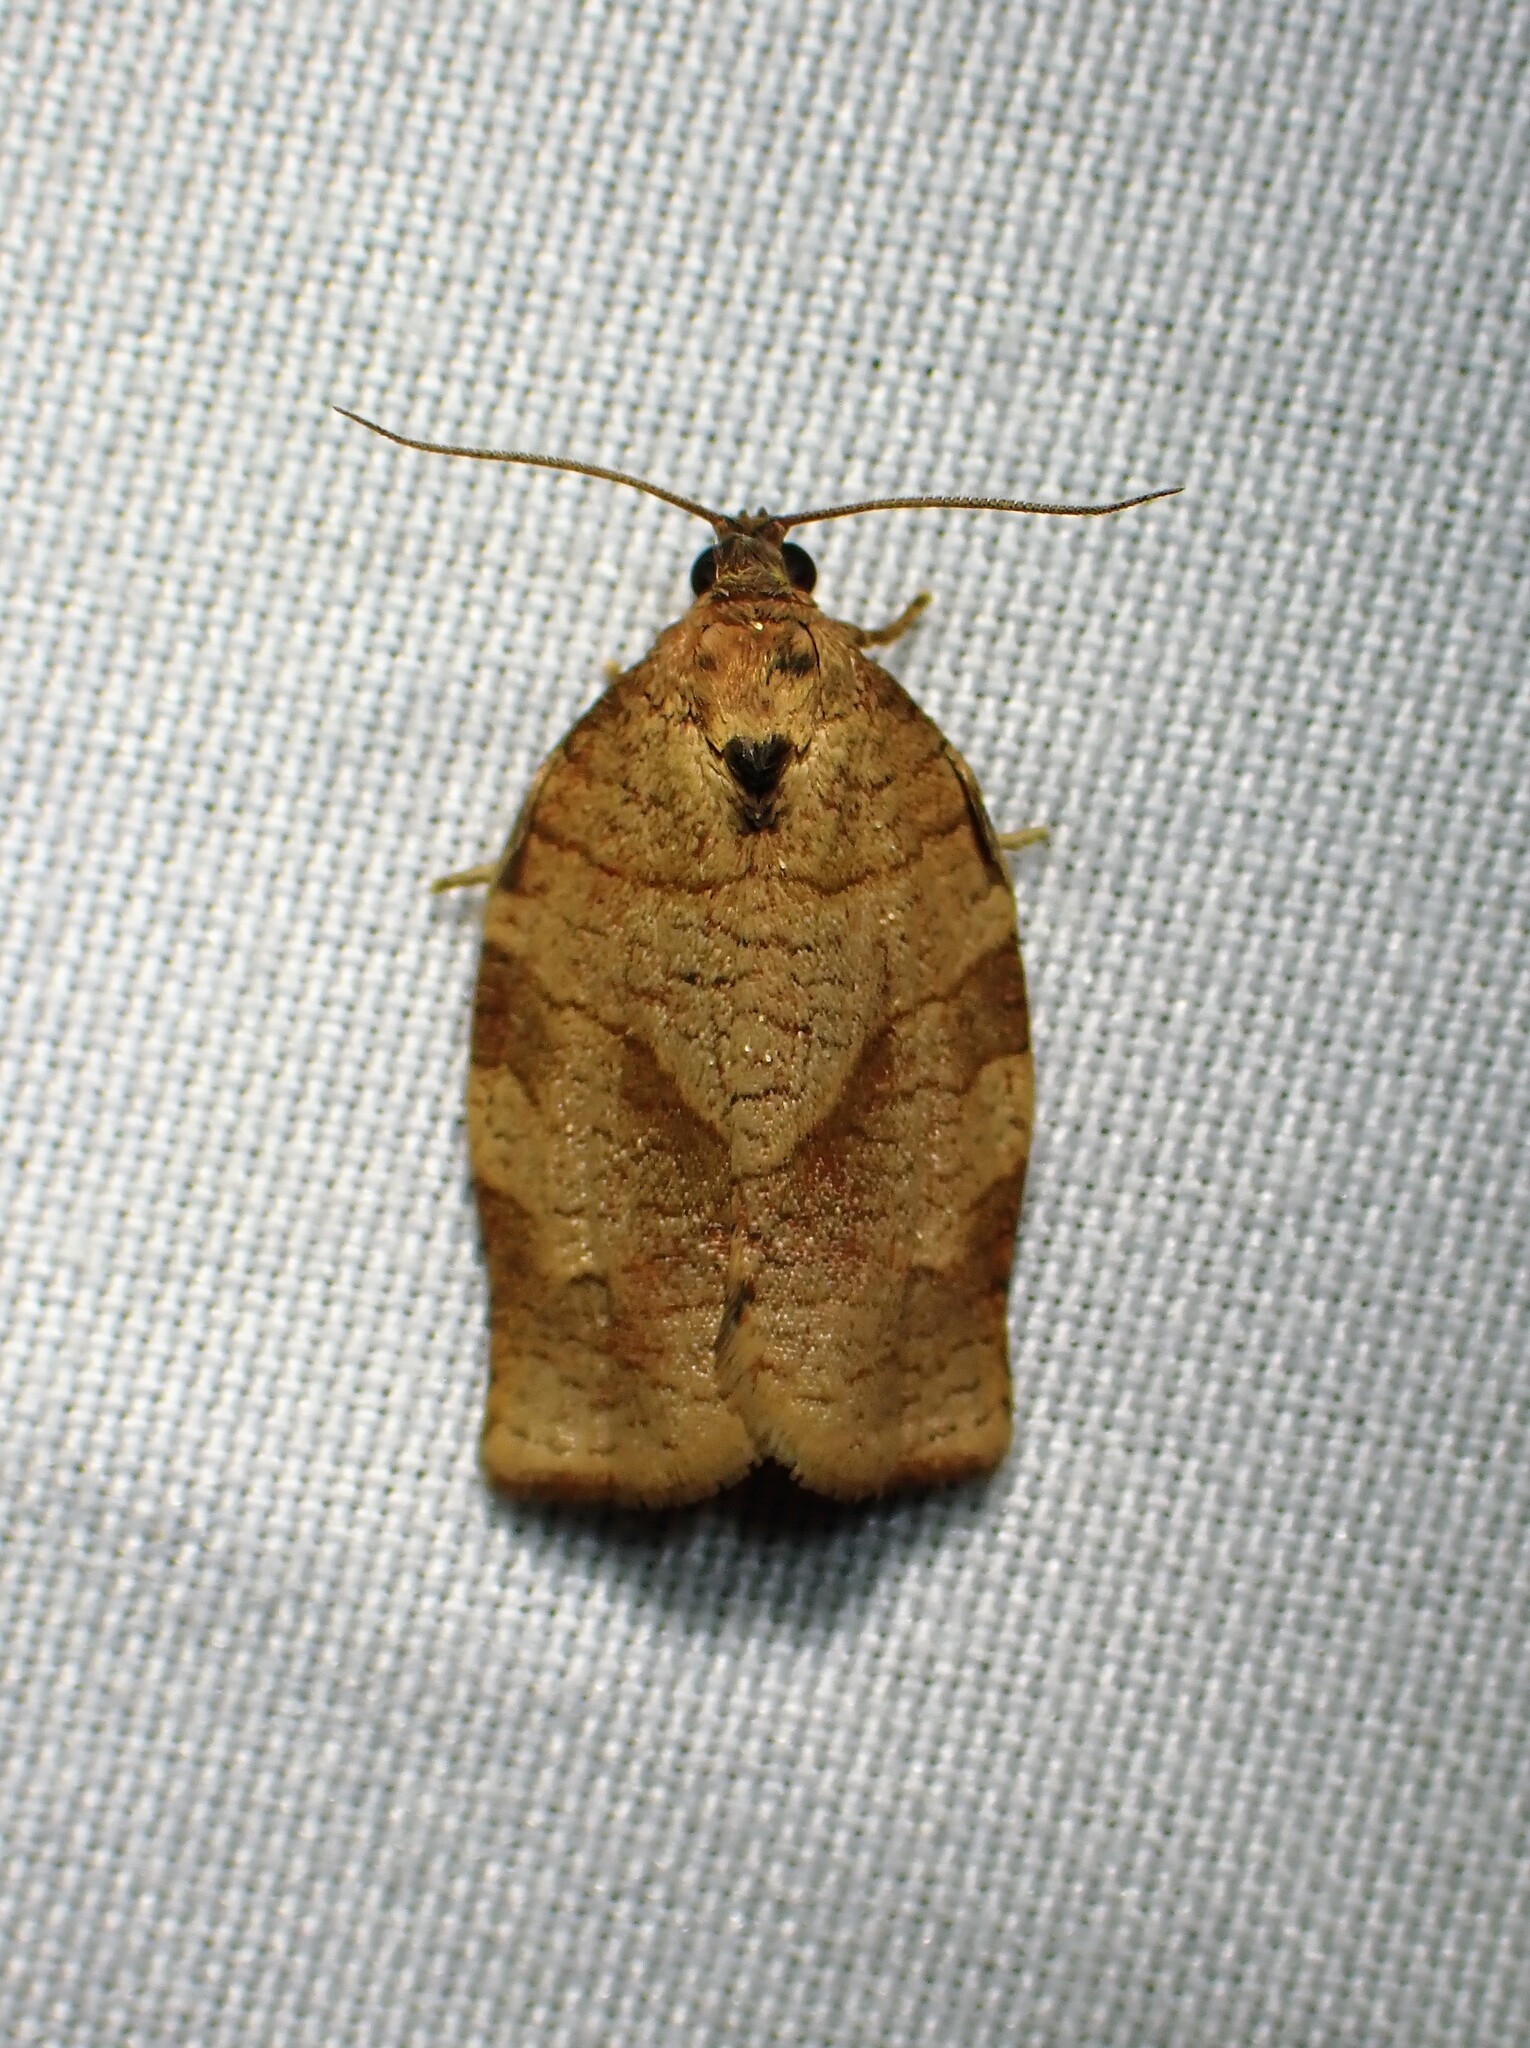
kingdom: Animalia
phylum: Arthropoda
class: Insecta
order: Lepidoptera
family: Tortricidae
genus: Choristoneura
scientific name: Choristoneura rosaceana
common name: Oblique-banded leafroller moth
